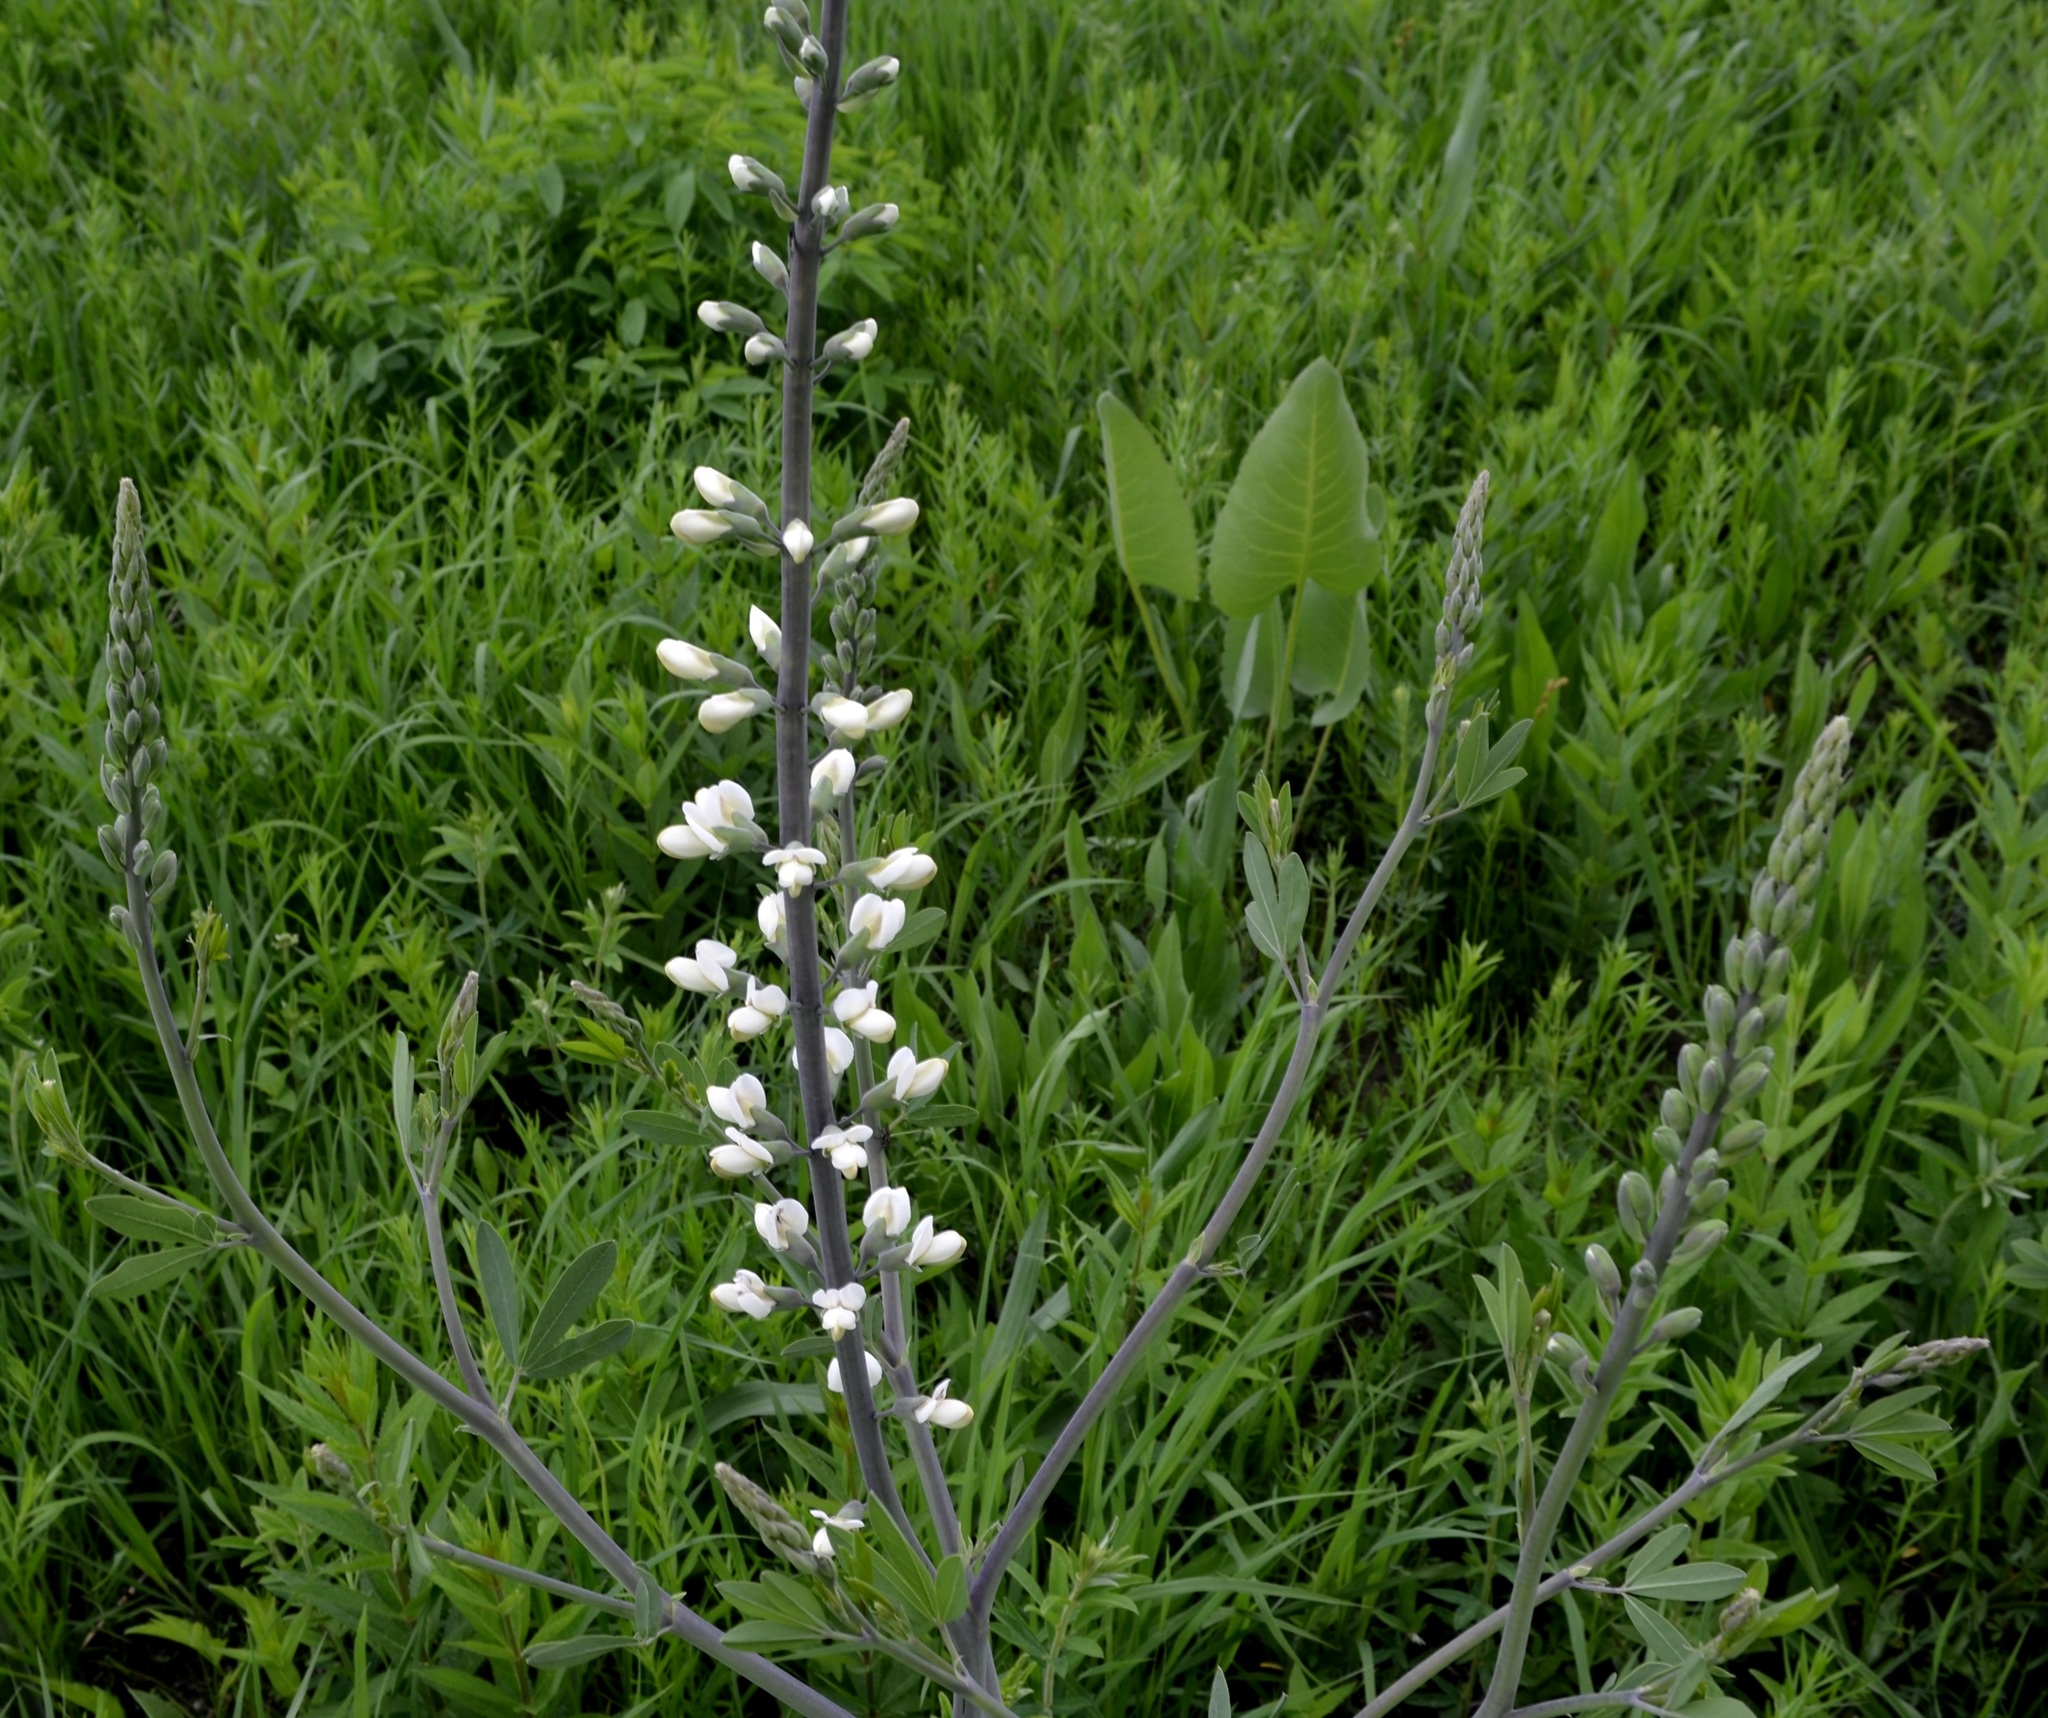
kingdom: Plantae
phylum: Tracheophyta
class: Magnoliopsida
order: Fabales
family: Fabaceae
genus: Baptisia
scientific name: Baptisia alba
